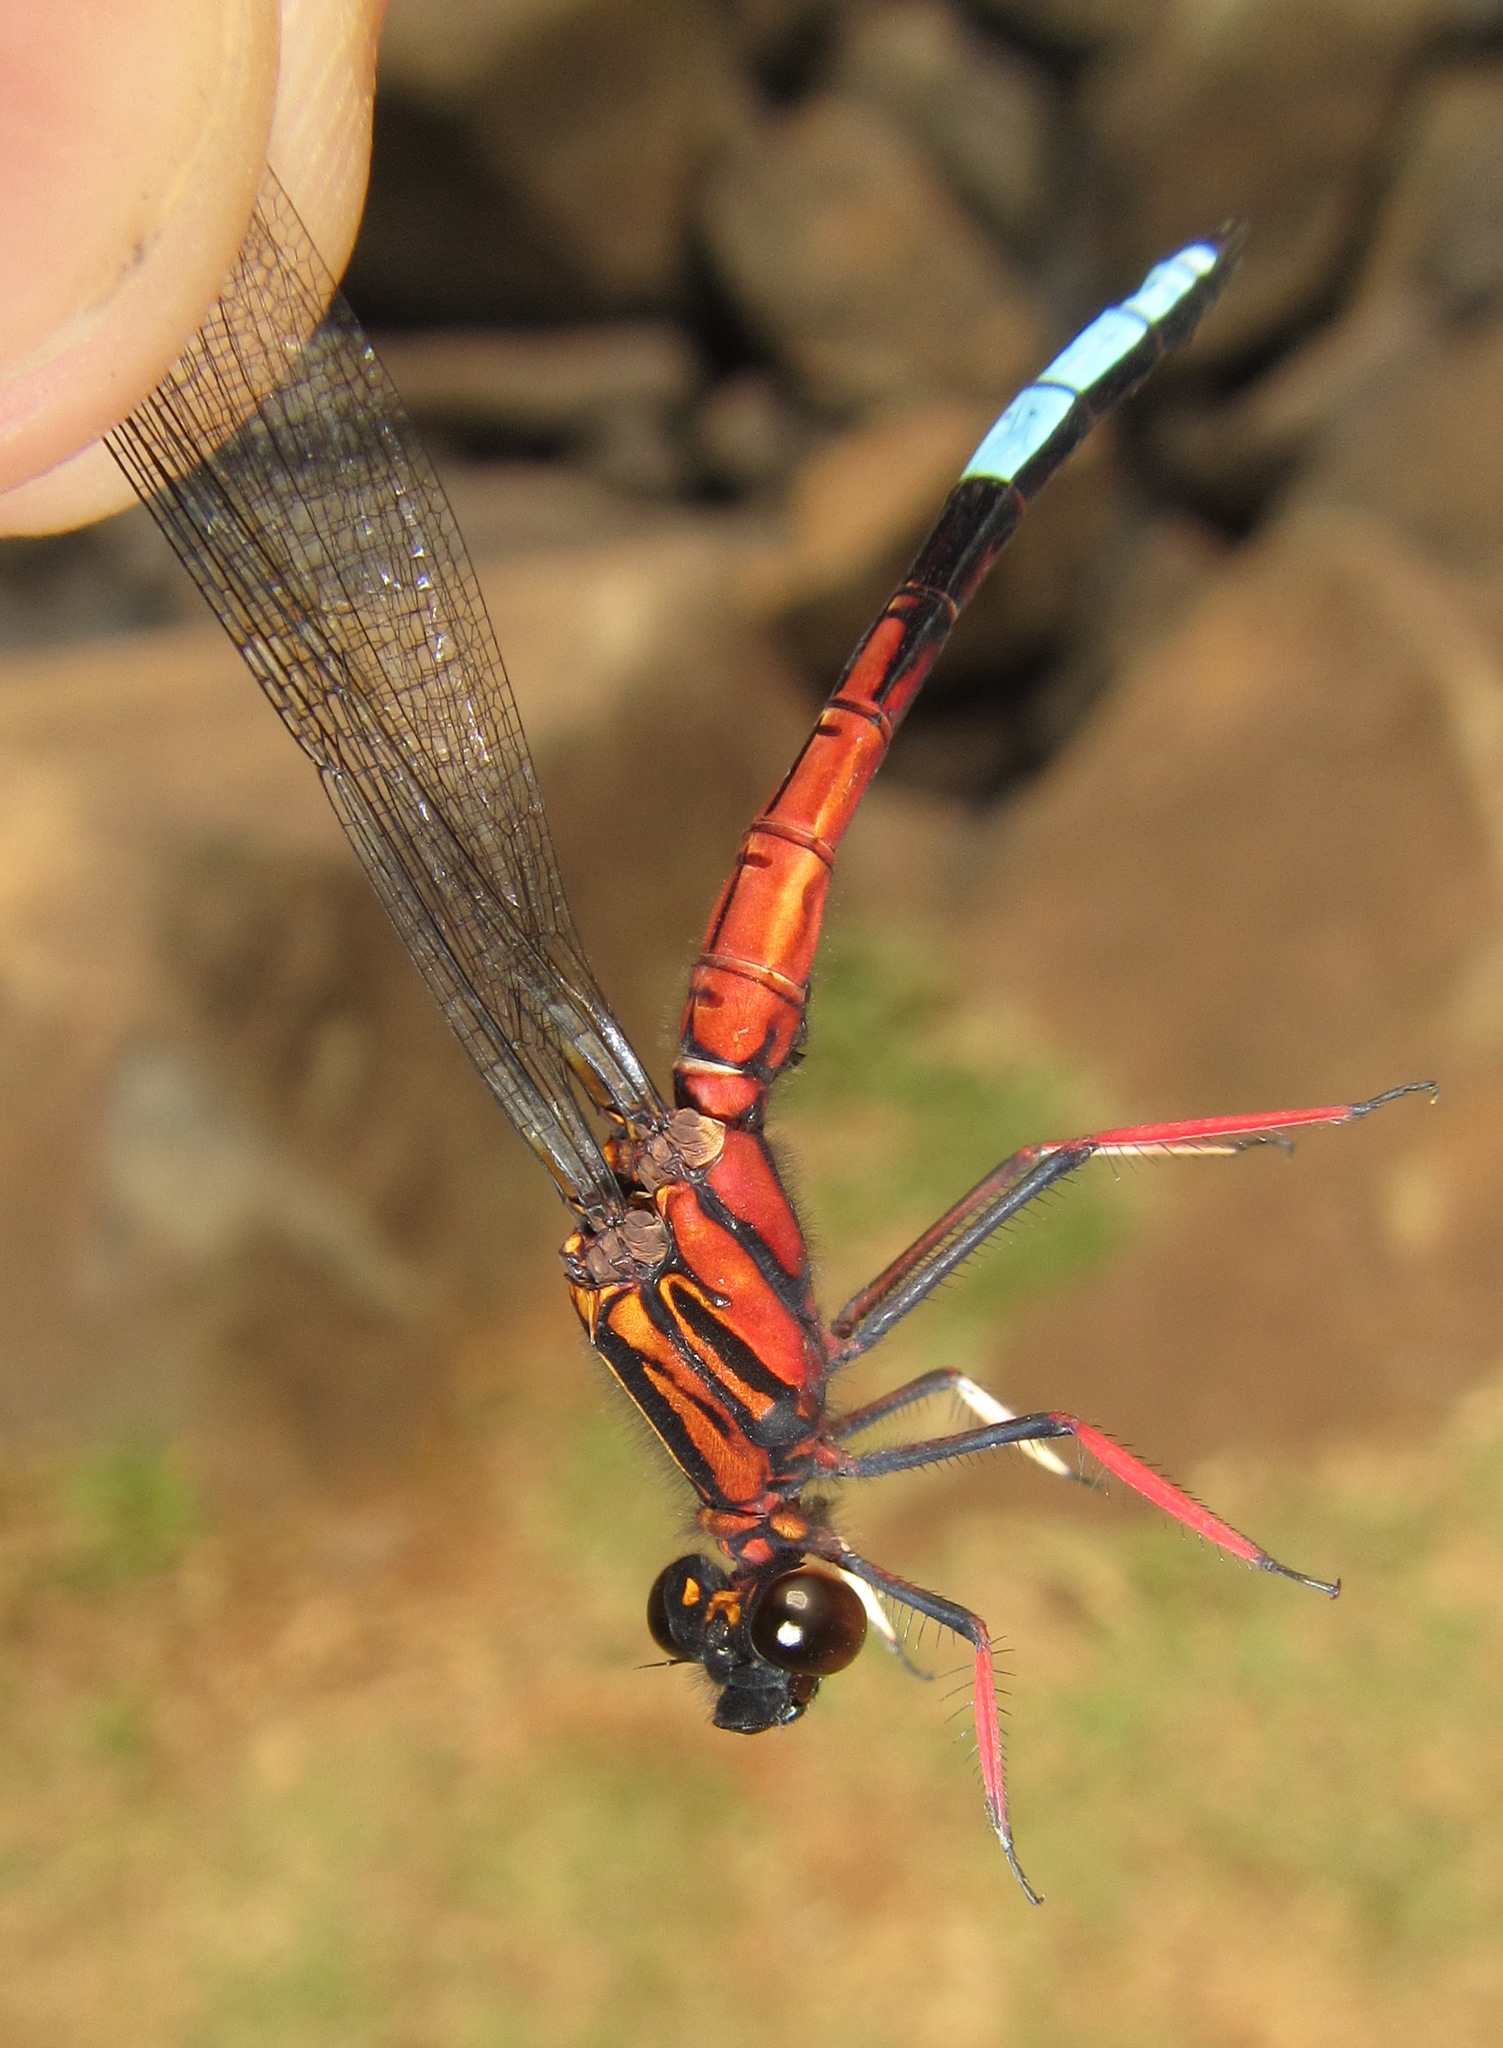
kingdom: Animalia
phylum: Arthropoda
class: Insecta
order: Odonata
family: Chlorocyphidae
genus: Platycypha
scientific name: Platycypha fitzsimonsi
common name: Boulder jewel
